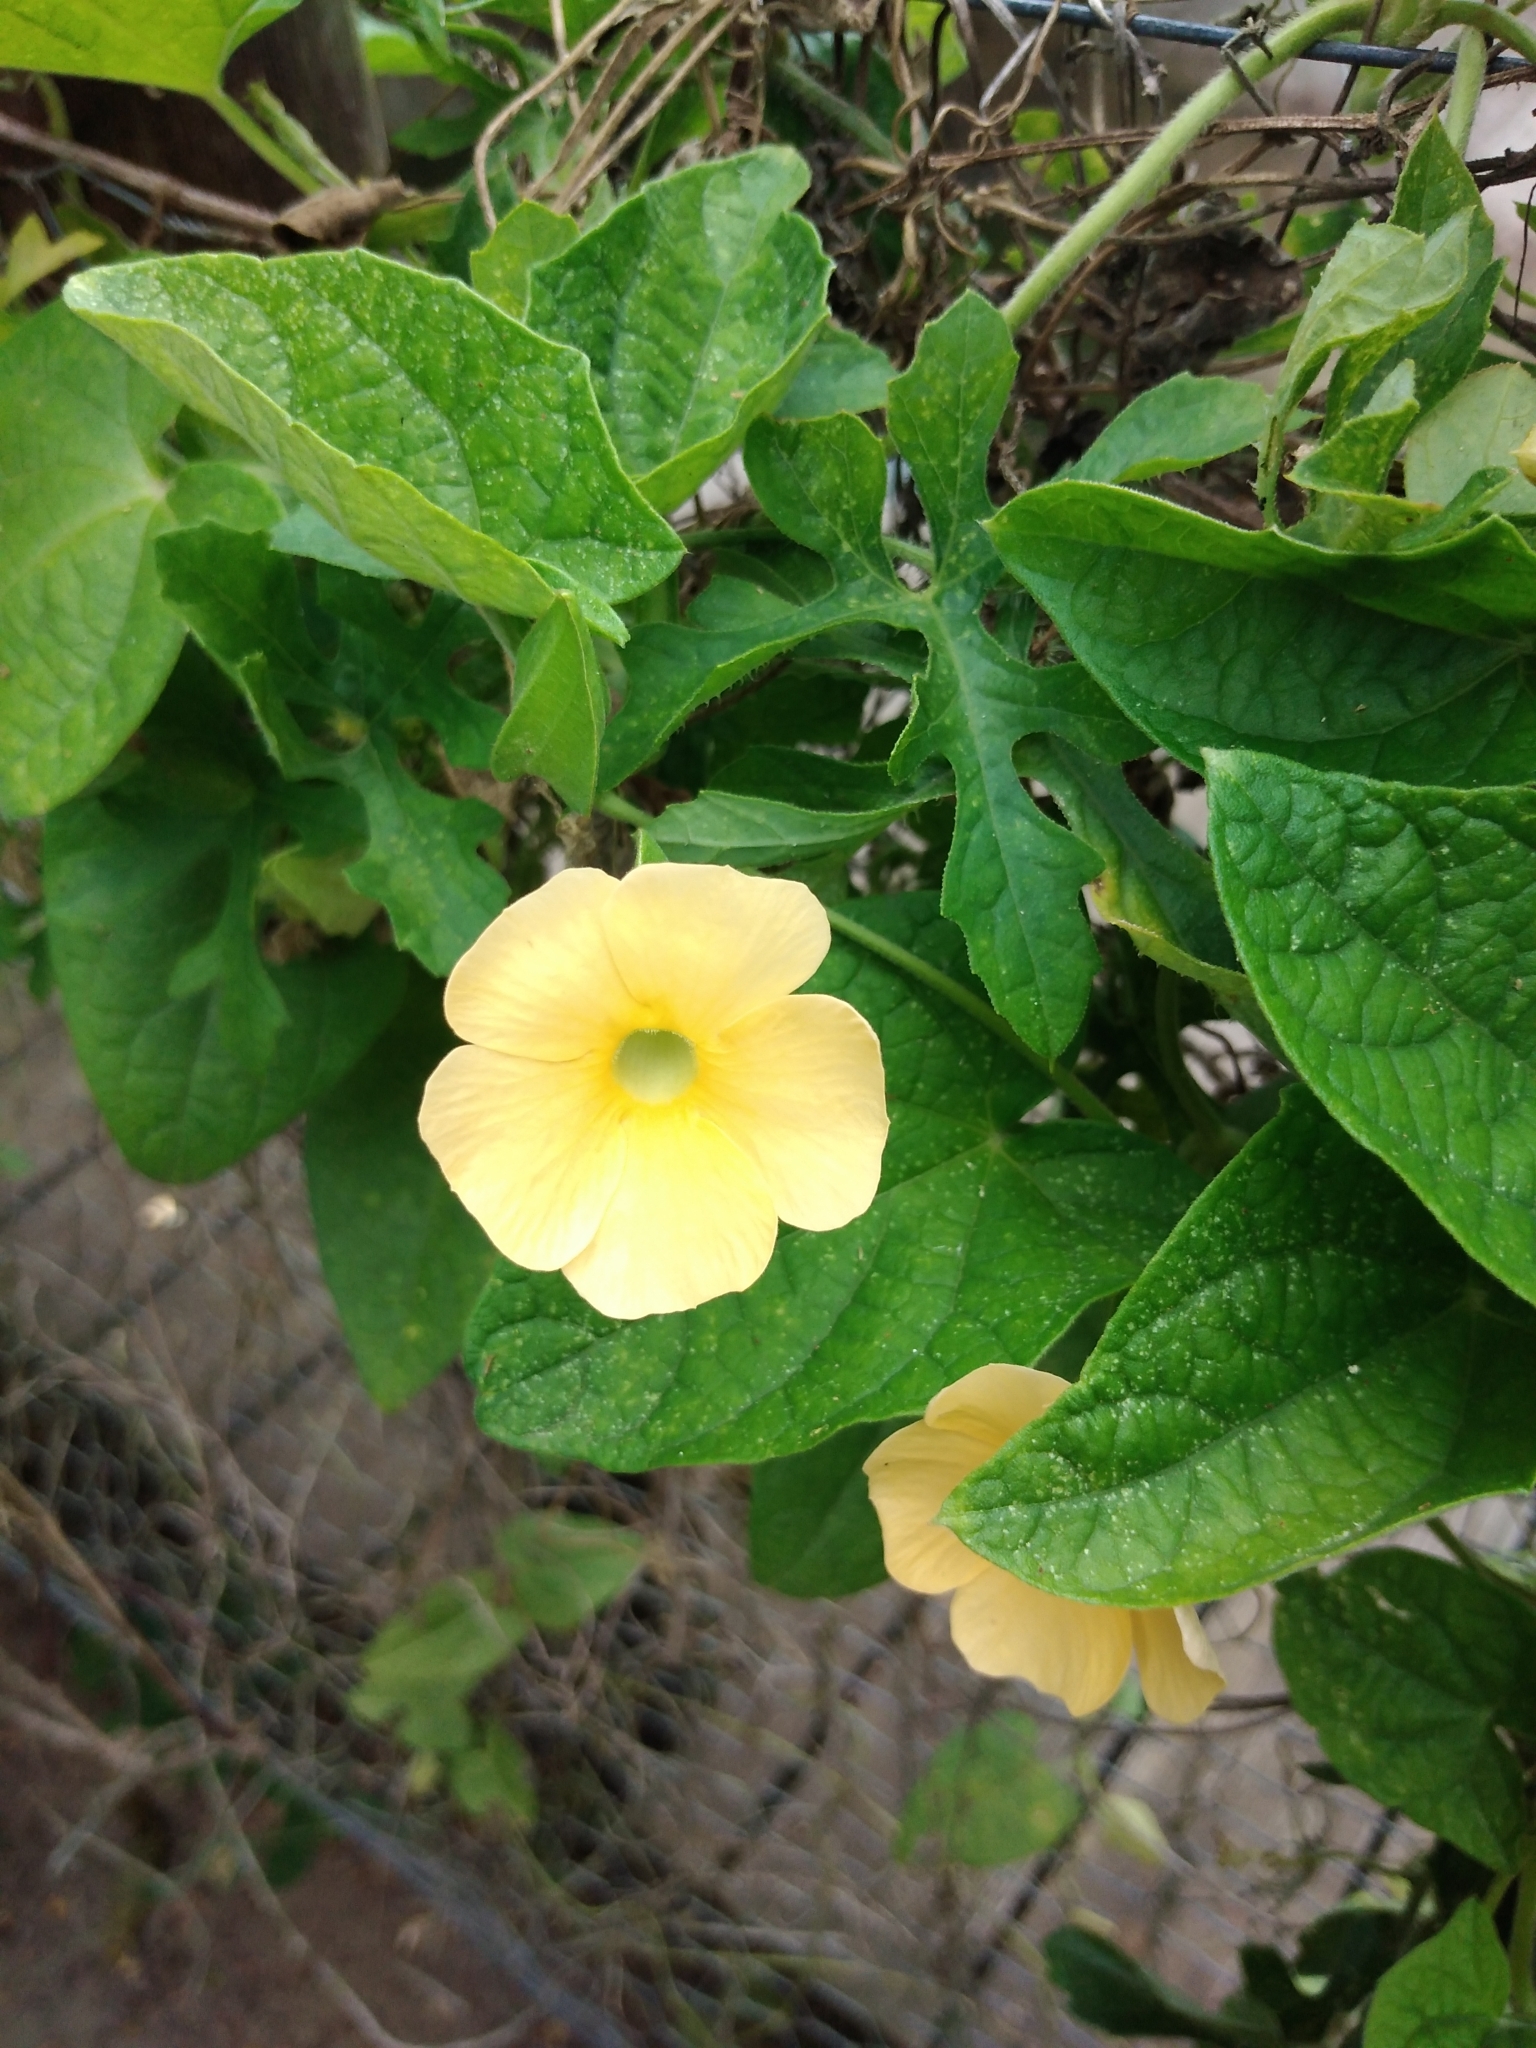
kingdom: Plantae
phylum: Tracheophyta
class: Magnoliopsida
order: Lamiales
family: Acanthaceae
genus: Thunbergia
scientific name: Thunbergia dregeana
